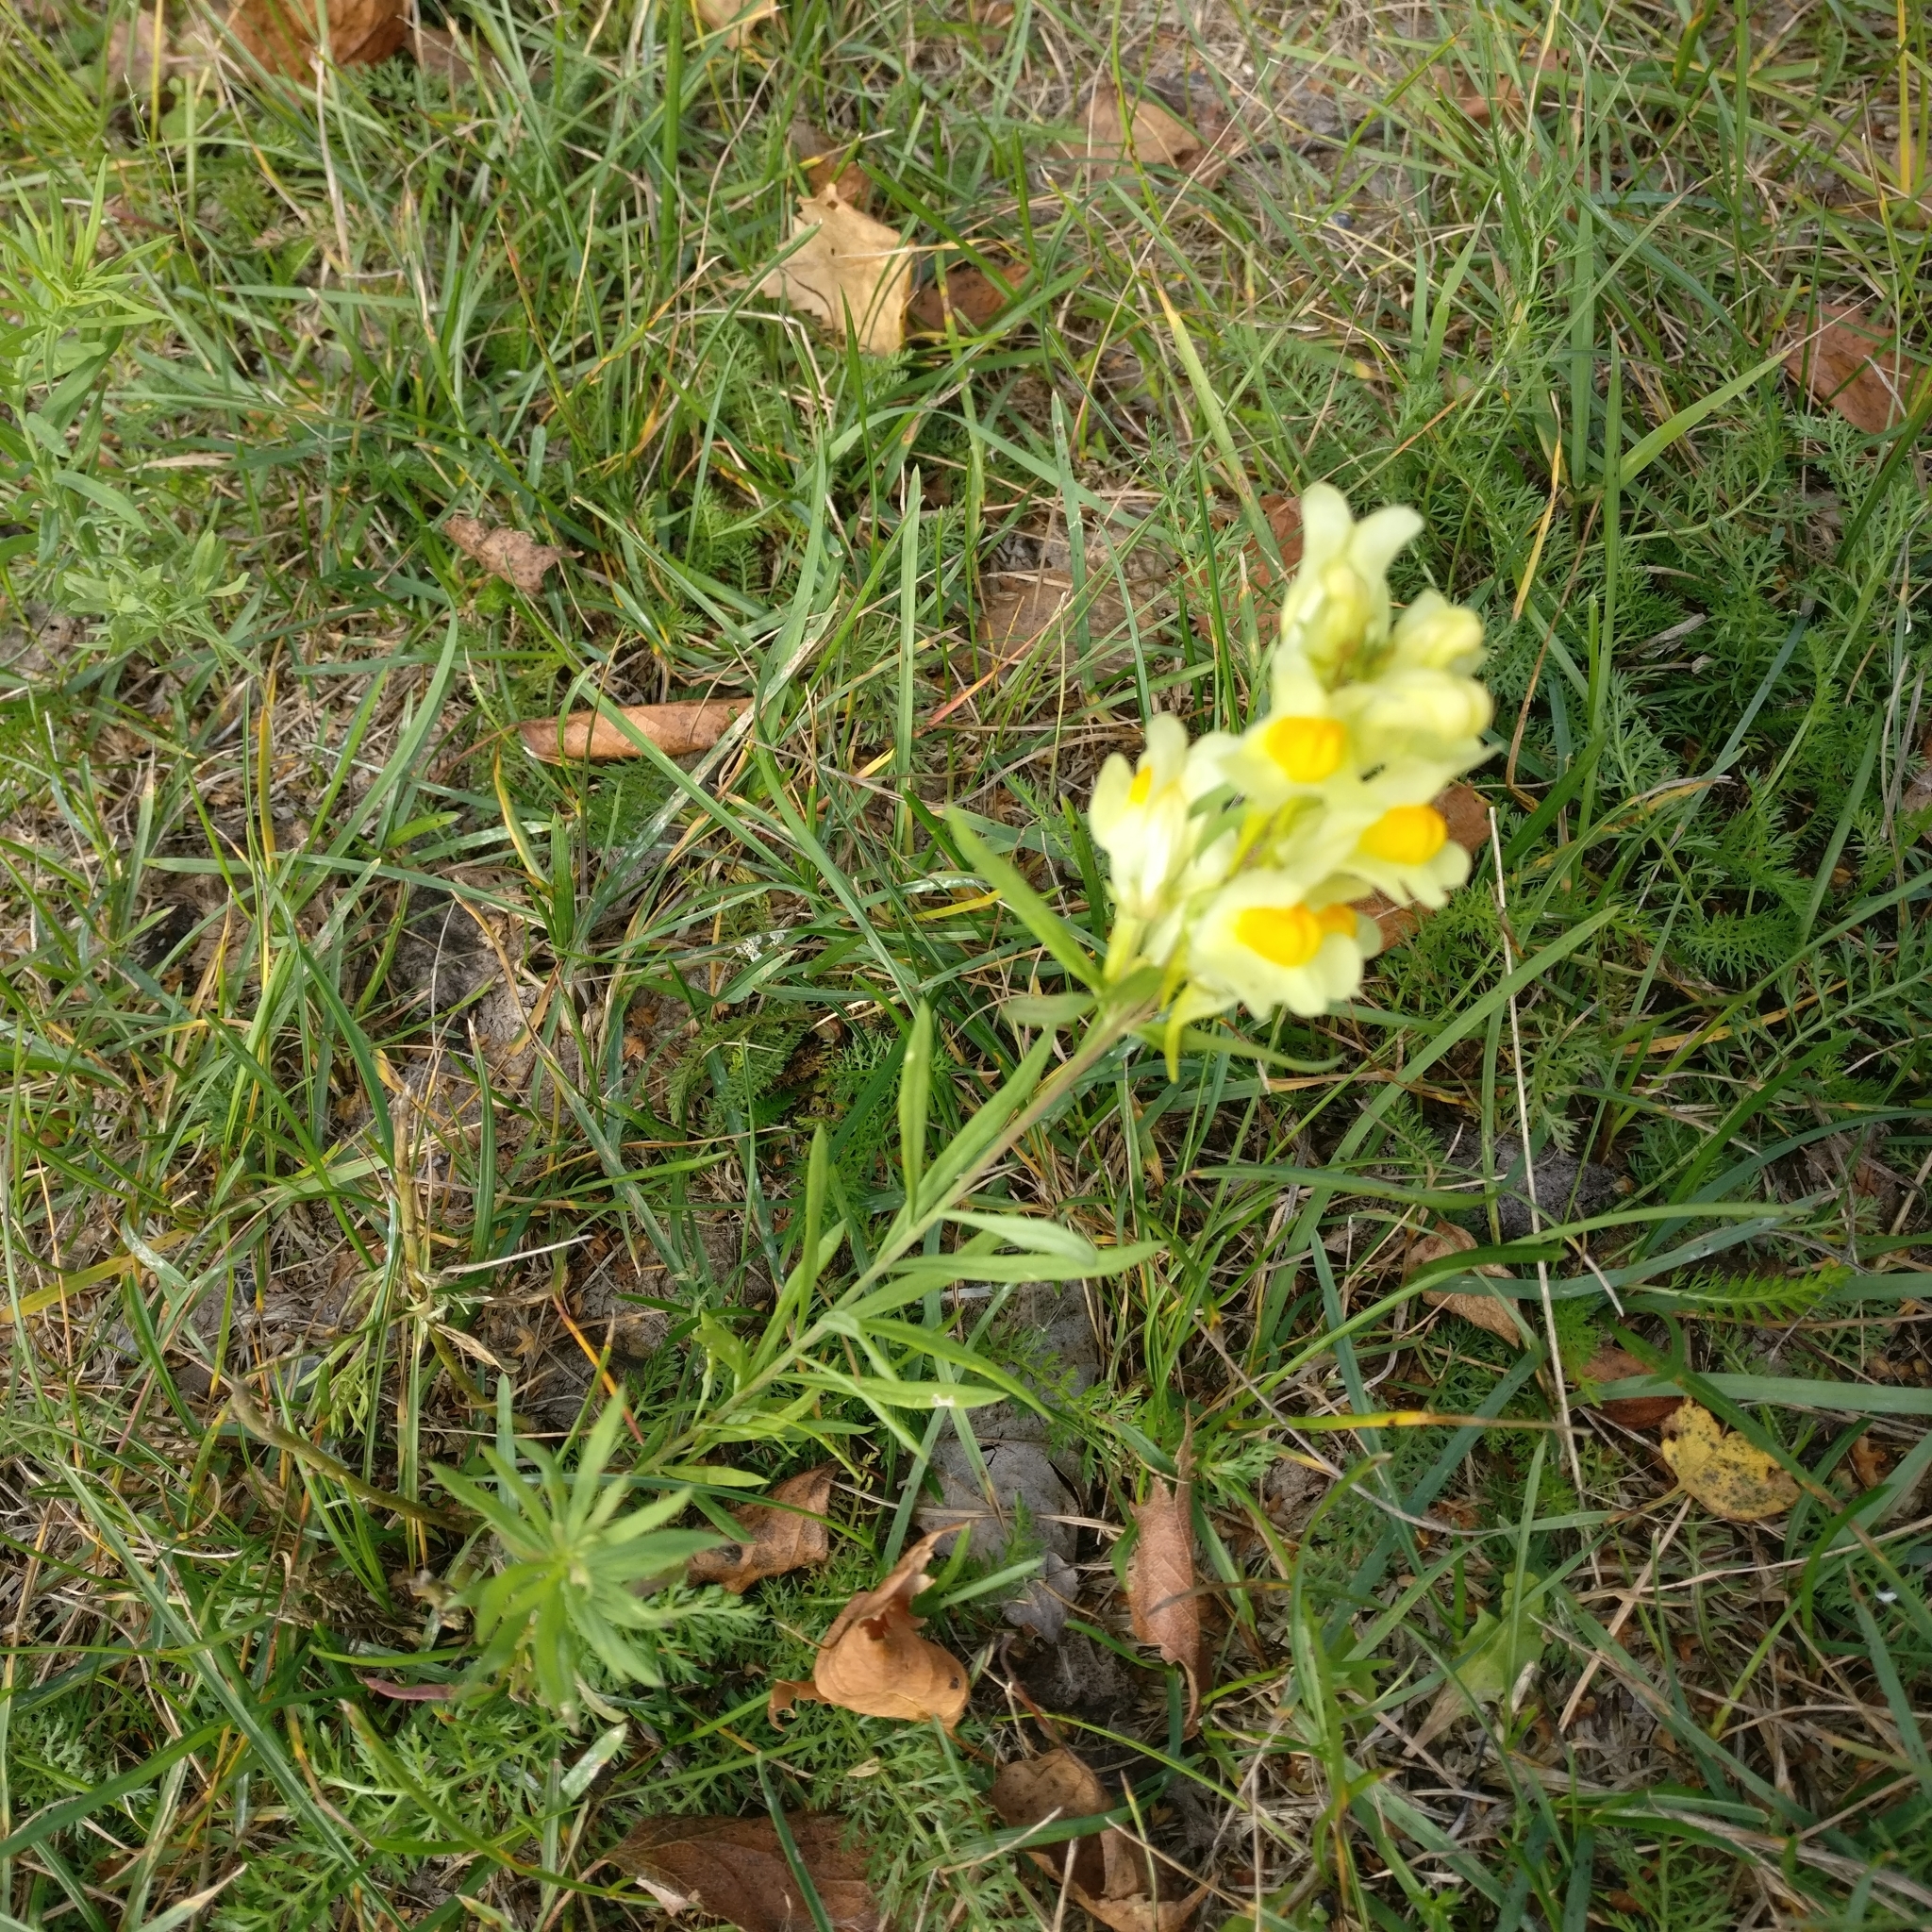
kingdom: Plantae
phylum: Tracheophyta
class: Magnoliopsida
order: Lamiales
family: Plantaginaceae
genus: Linaria
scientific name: Linaria vulgaris
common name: Butter and eggs
